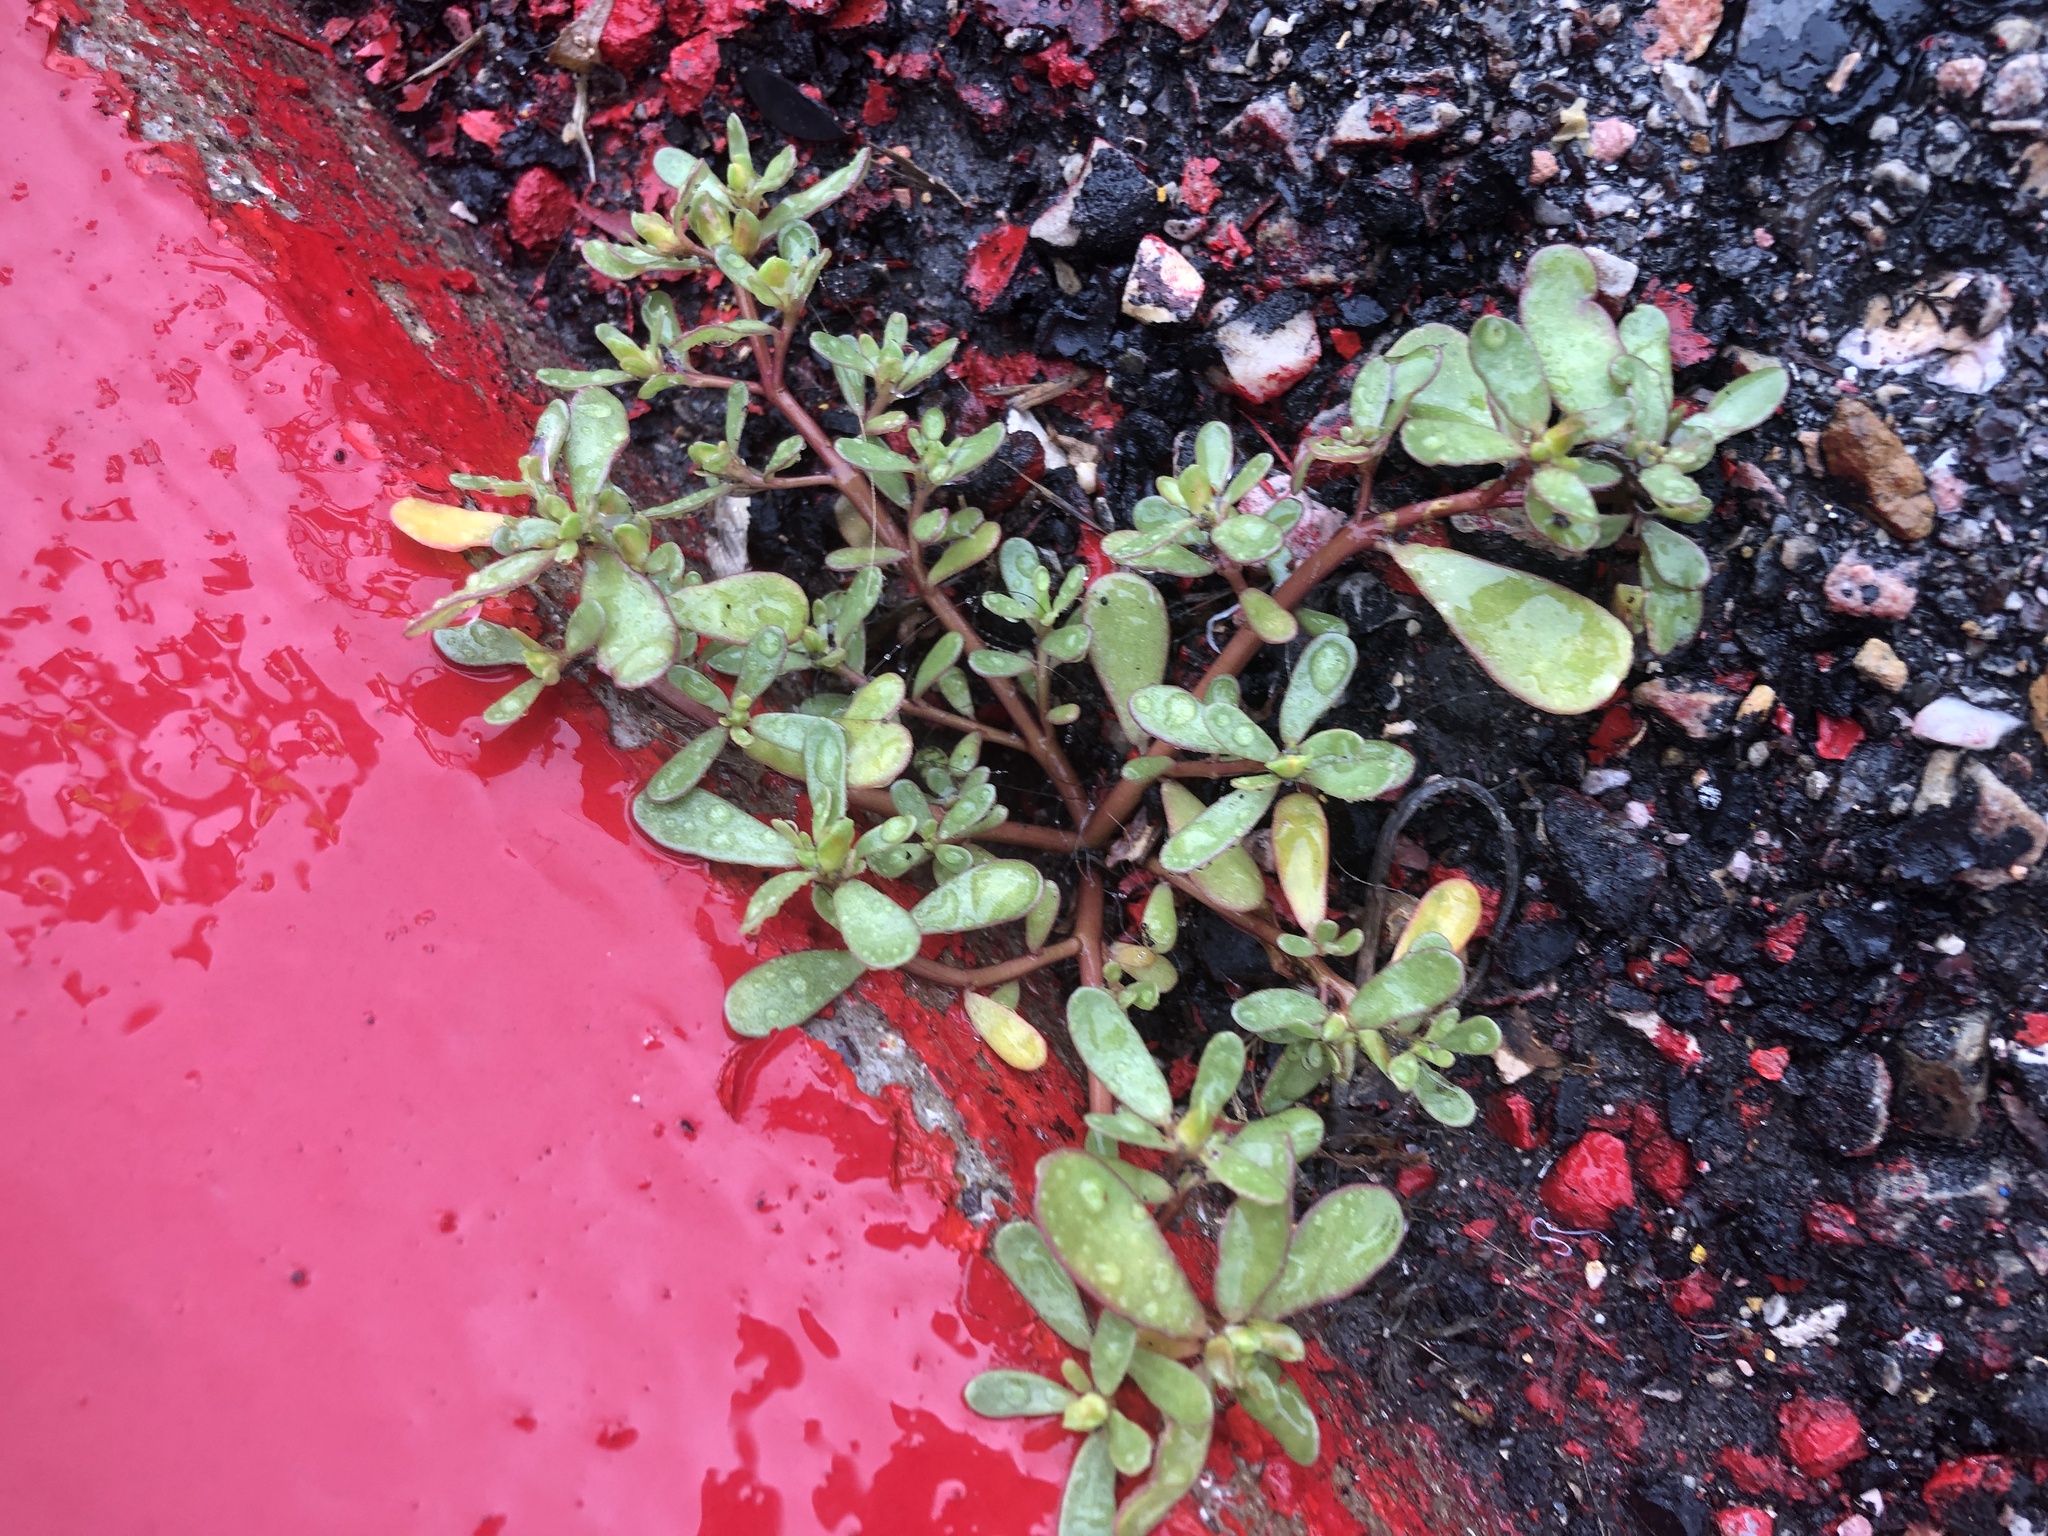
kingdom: Plantae
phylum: Tracheophyta
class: Magnoliopsida
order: Caryophyllales
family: Portulacaceae
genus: Portulaca
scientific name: Portulaca oleracea
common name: Common purslane
